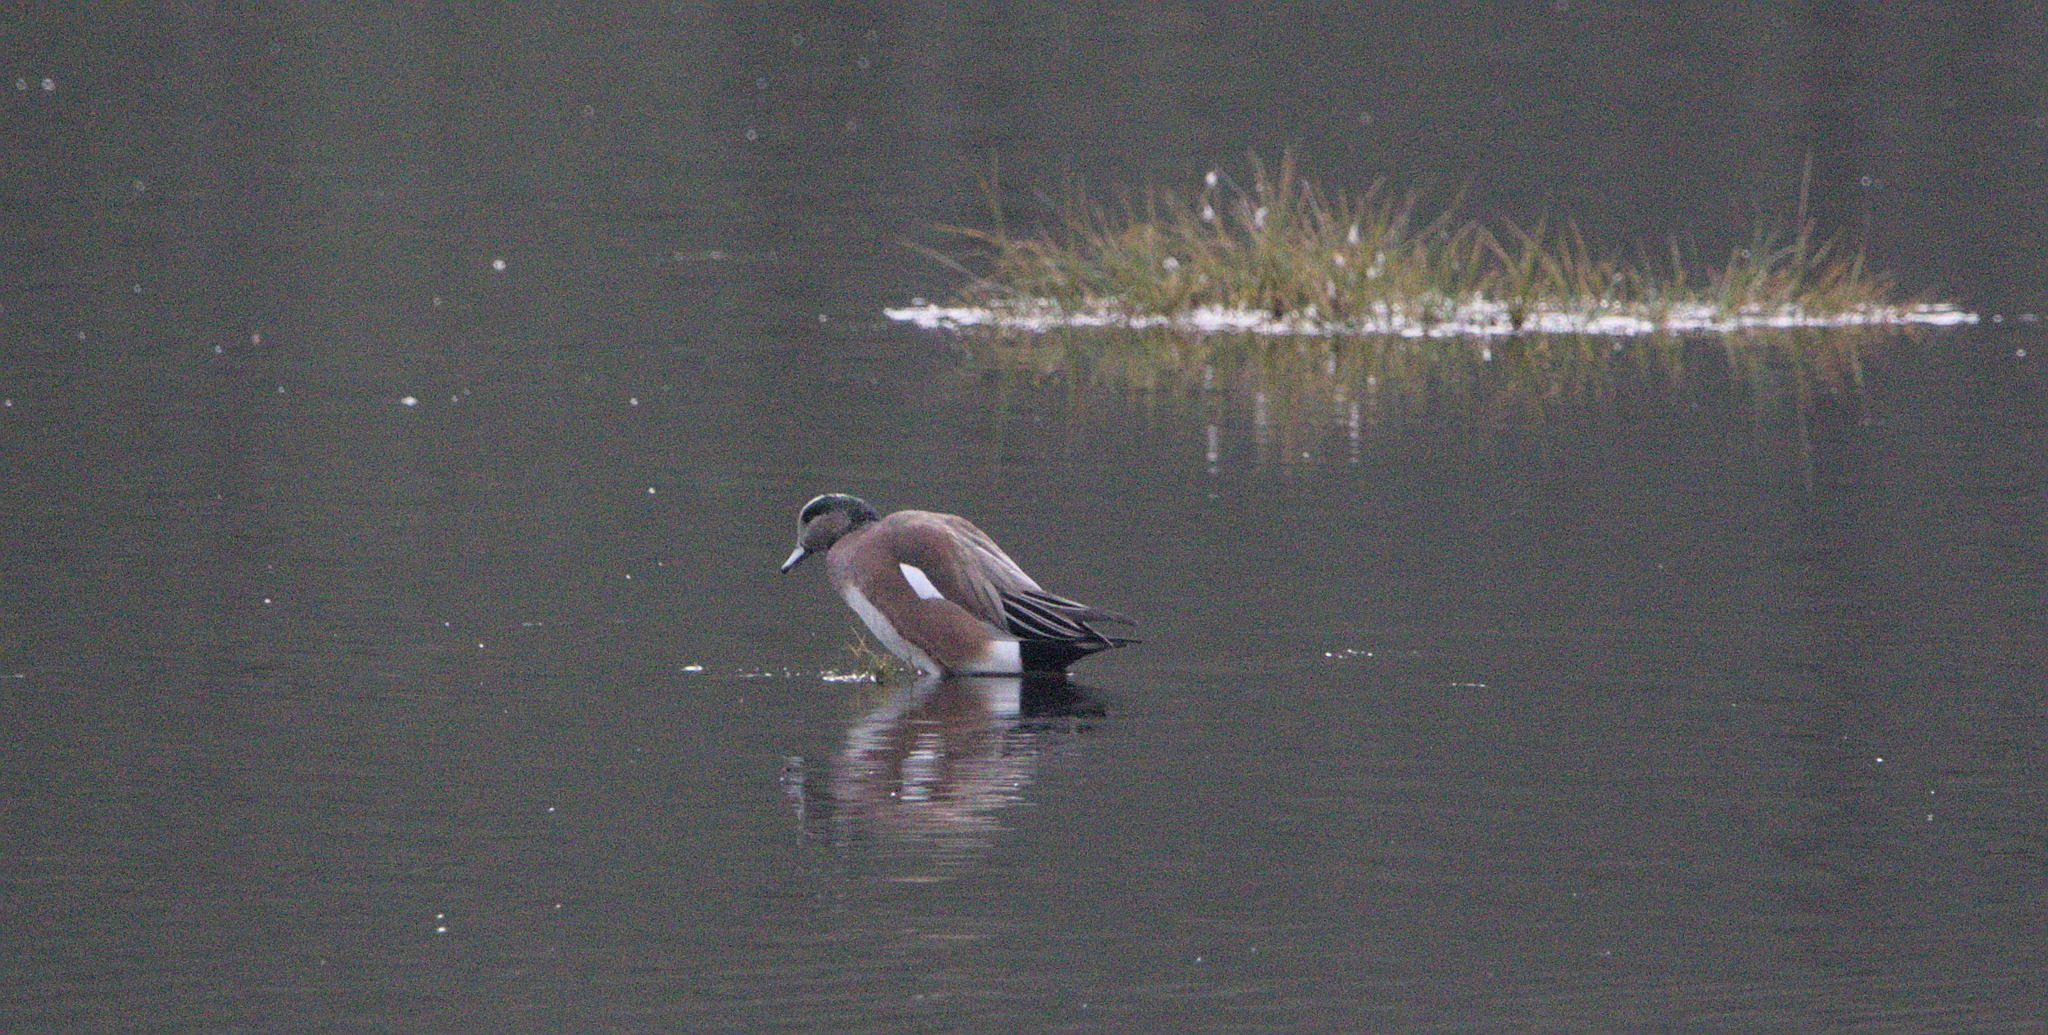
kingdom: Animalia
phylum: Chordata
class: Aves
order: Anseriformes
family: Anatidae
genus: Mareca
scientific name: Mareca americana
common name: American wigeon
